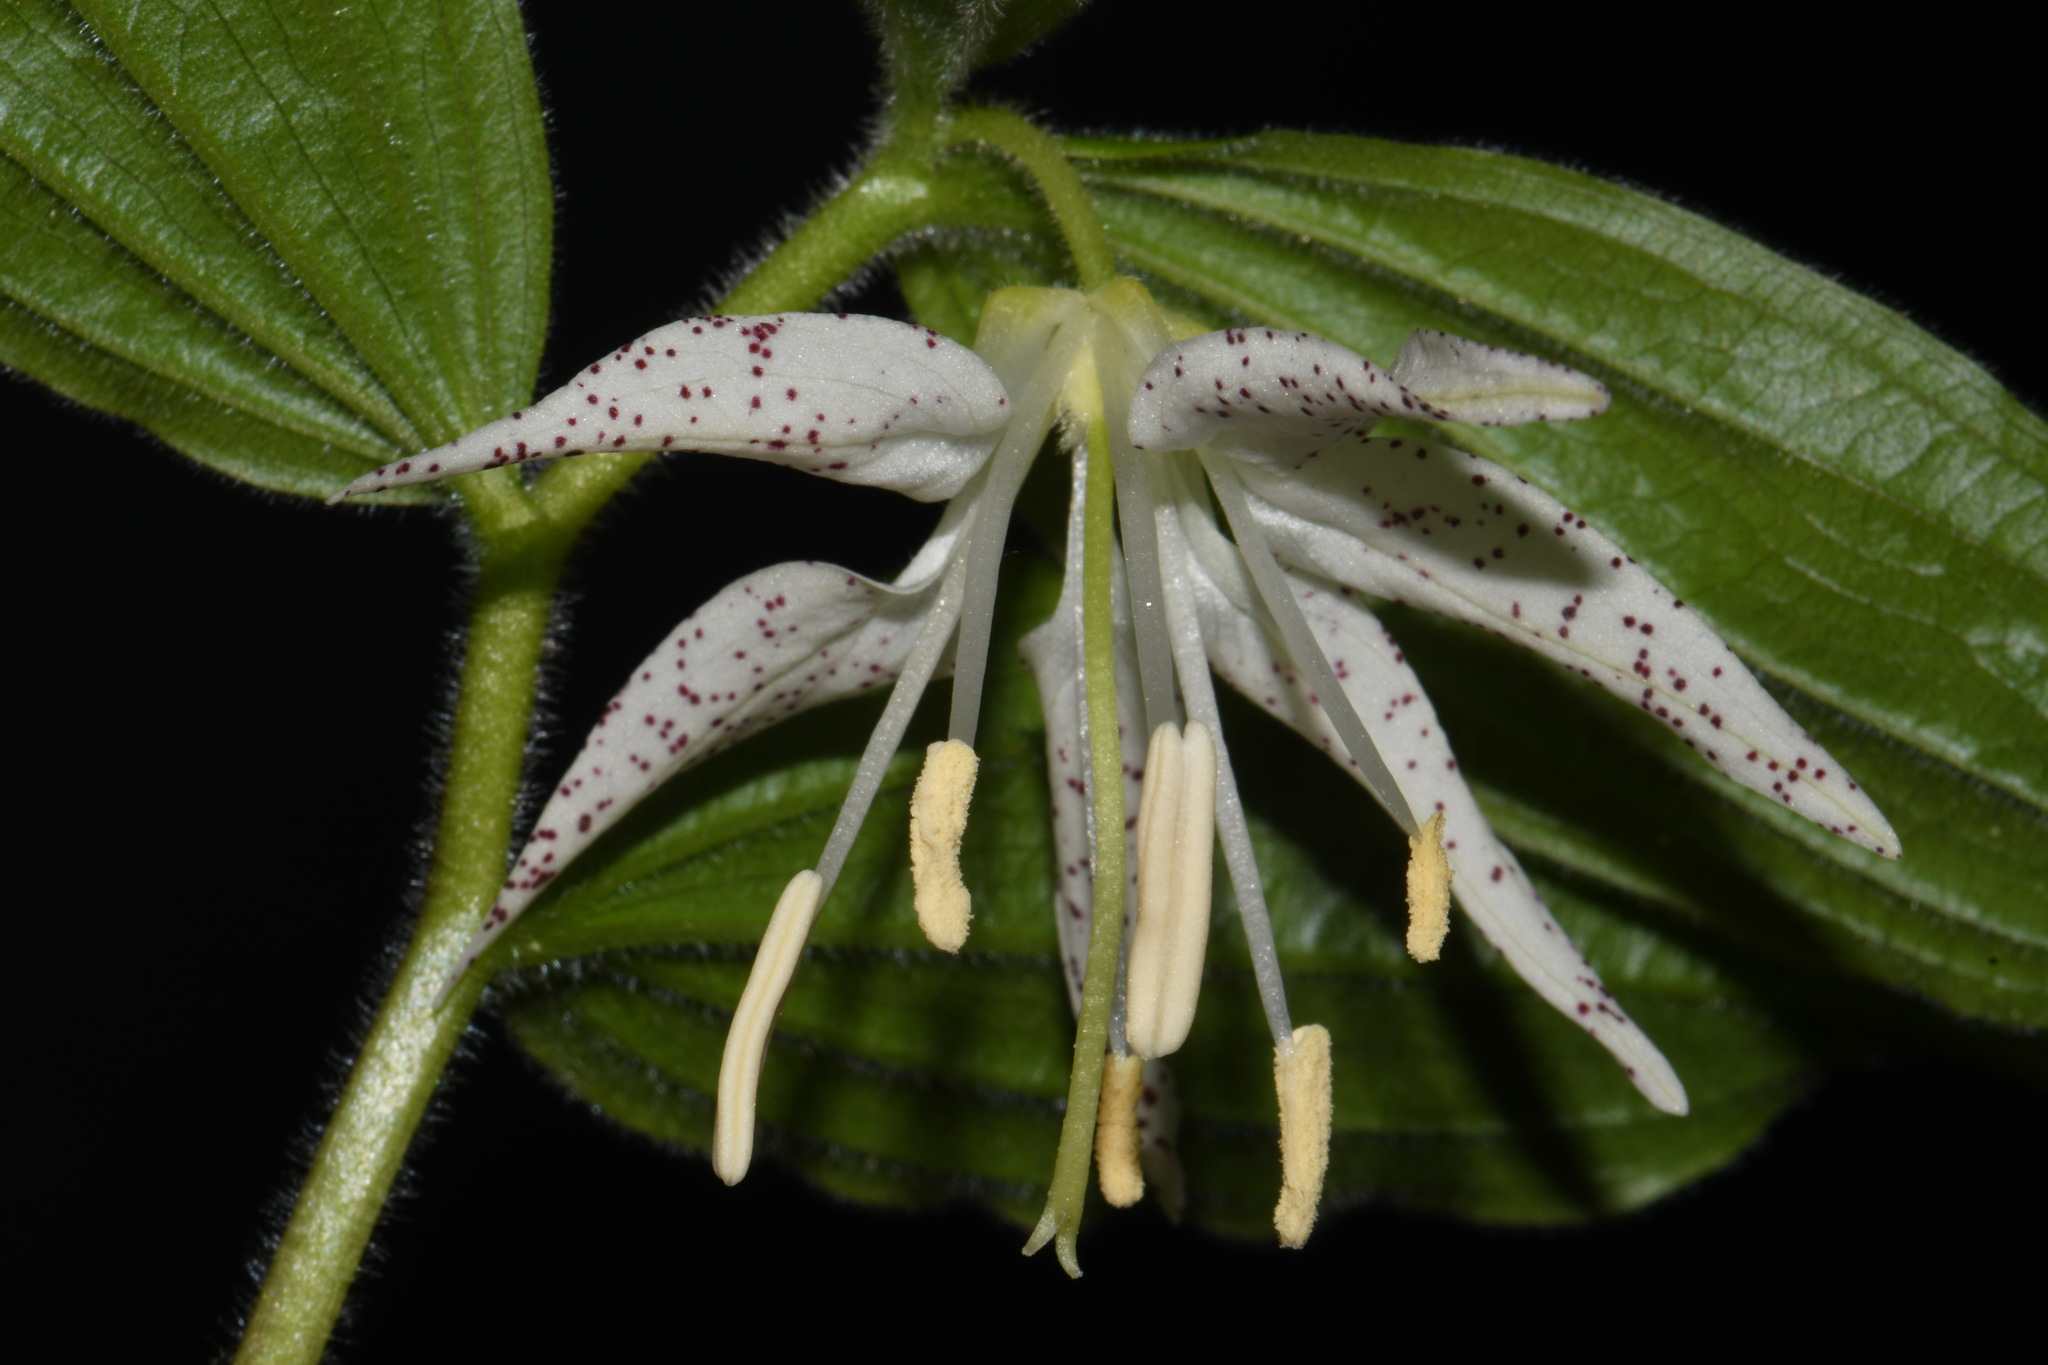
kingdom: Plantae
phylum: Tracheophyta
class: Liliopsida
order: Liliales
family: Liliaceae
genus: Prosartes
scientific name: Prosartes maculata
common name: Yellow mandarin
